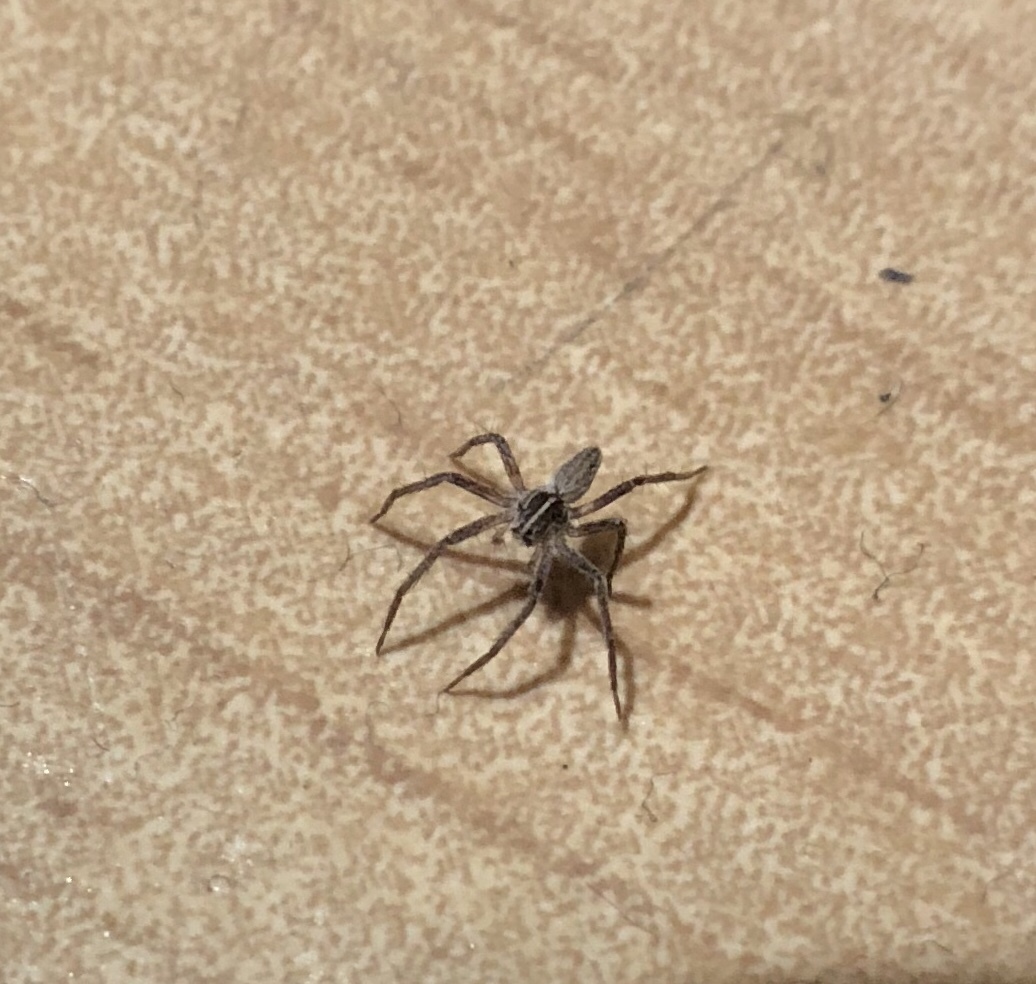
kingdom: Animalia
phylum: Arthropoda
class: Arachnida
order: Araneae
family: Pisauridae
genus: Pisaura
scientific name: Pisaura mirabilis
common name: Tent spider
